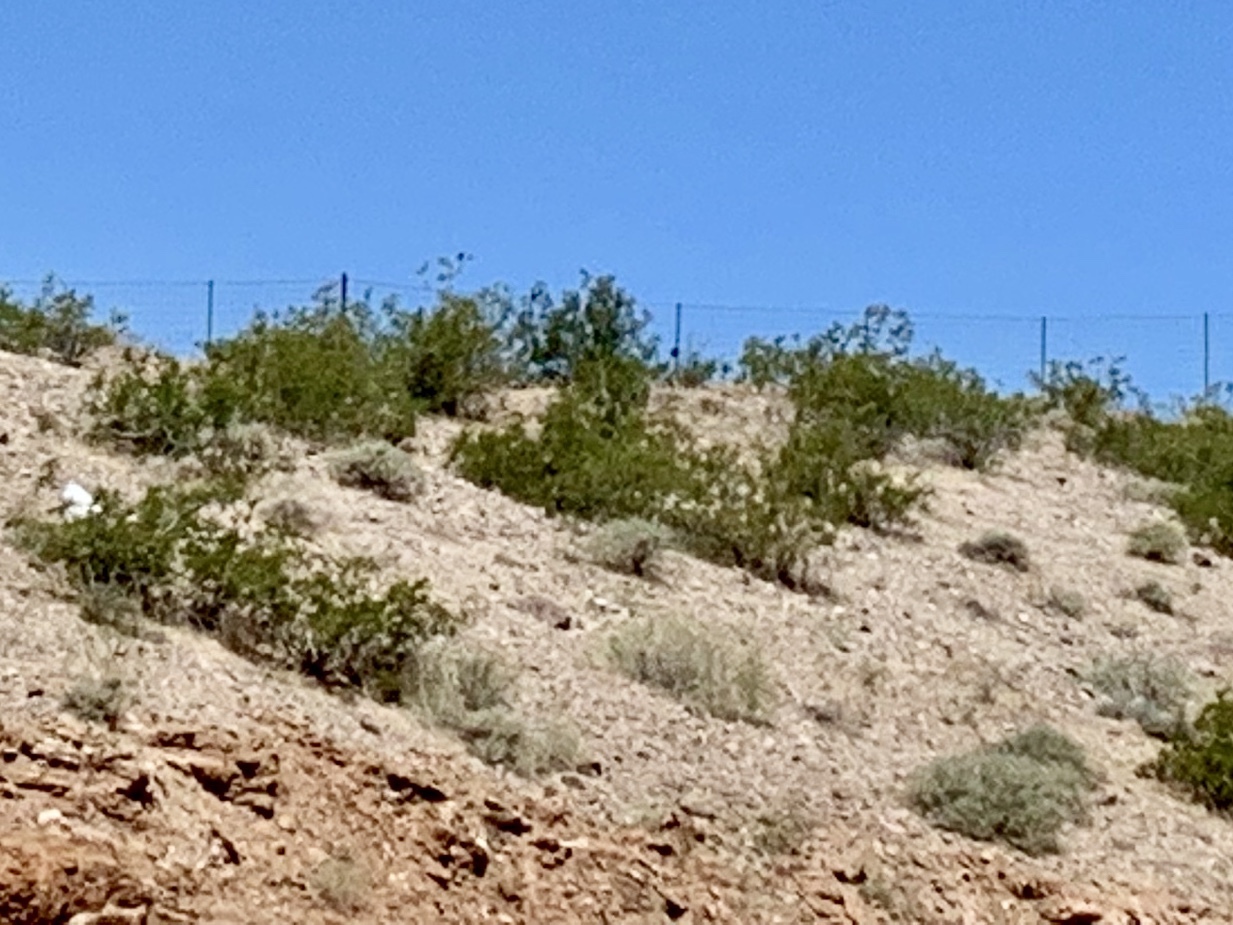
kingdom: Plantae
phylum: Tracheophyta
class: Magnoliopsida
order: Zygophyllales
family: Zygophyllaceae
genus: Larrea
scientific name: Larrea tridentata
